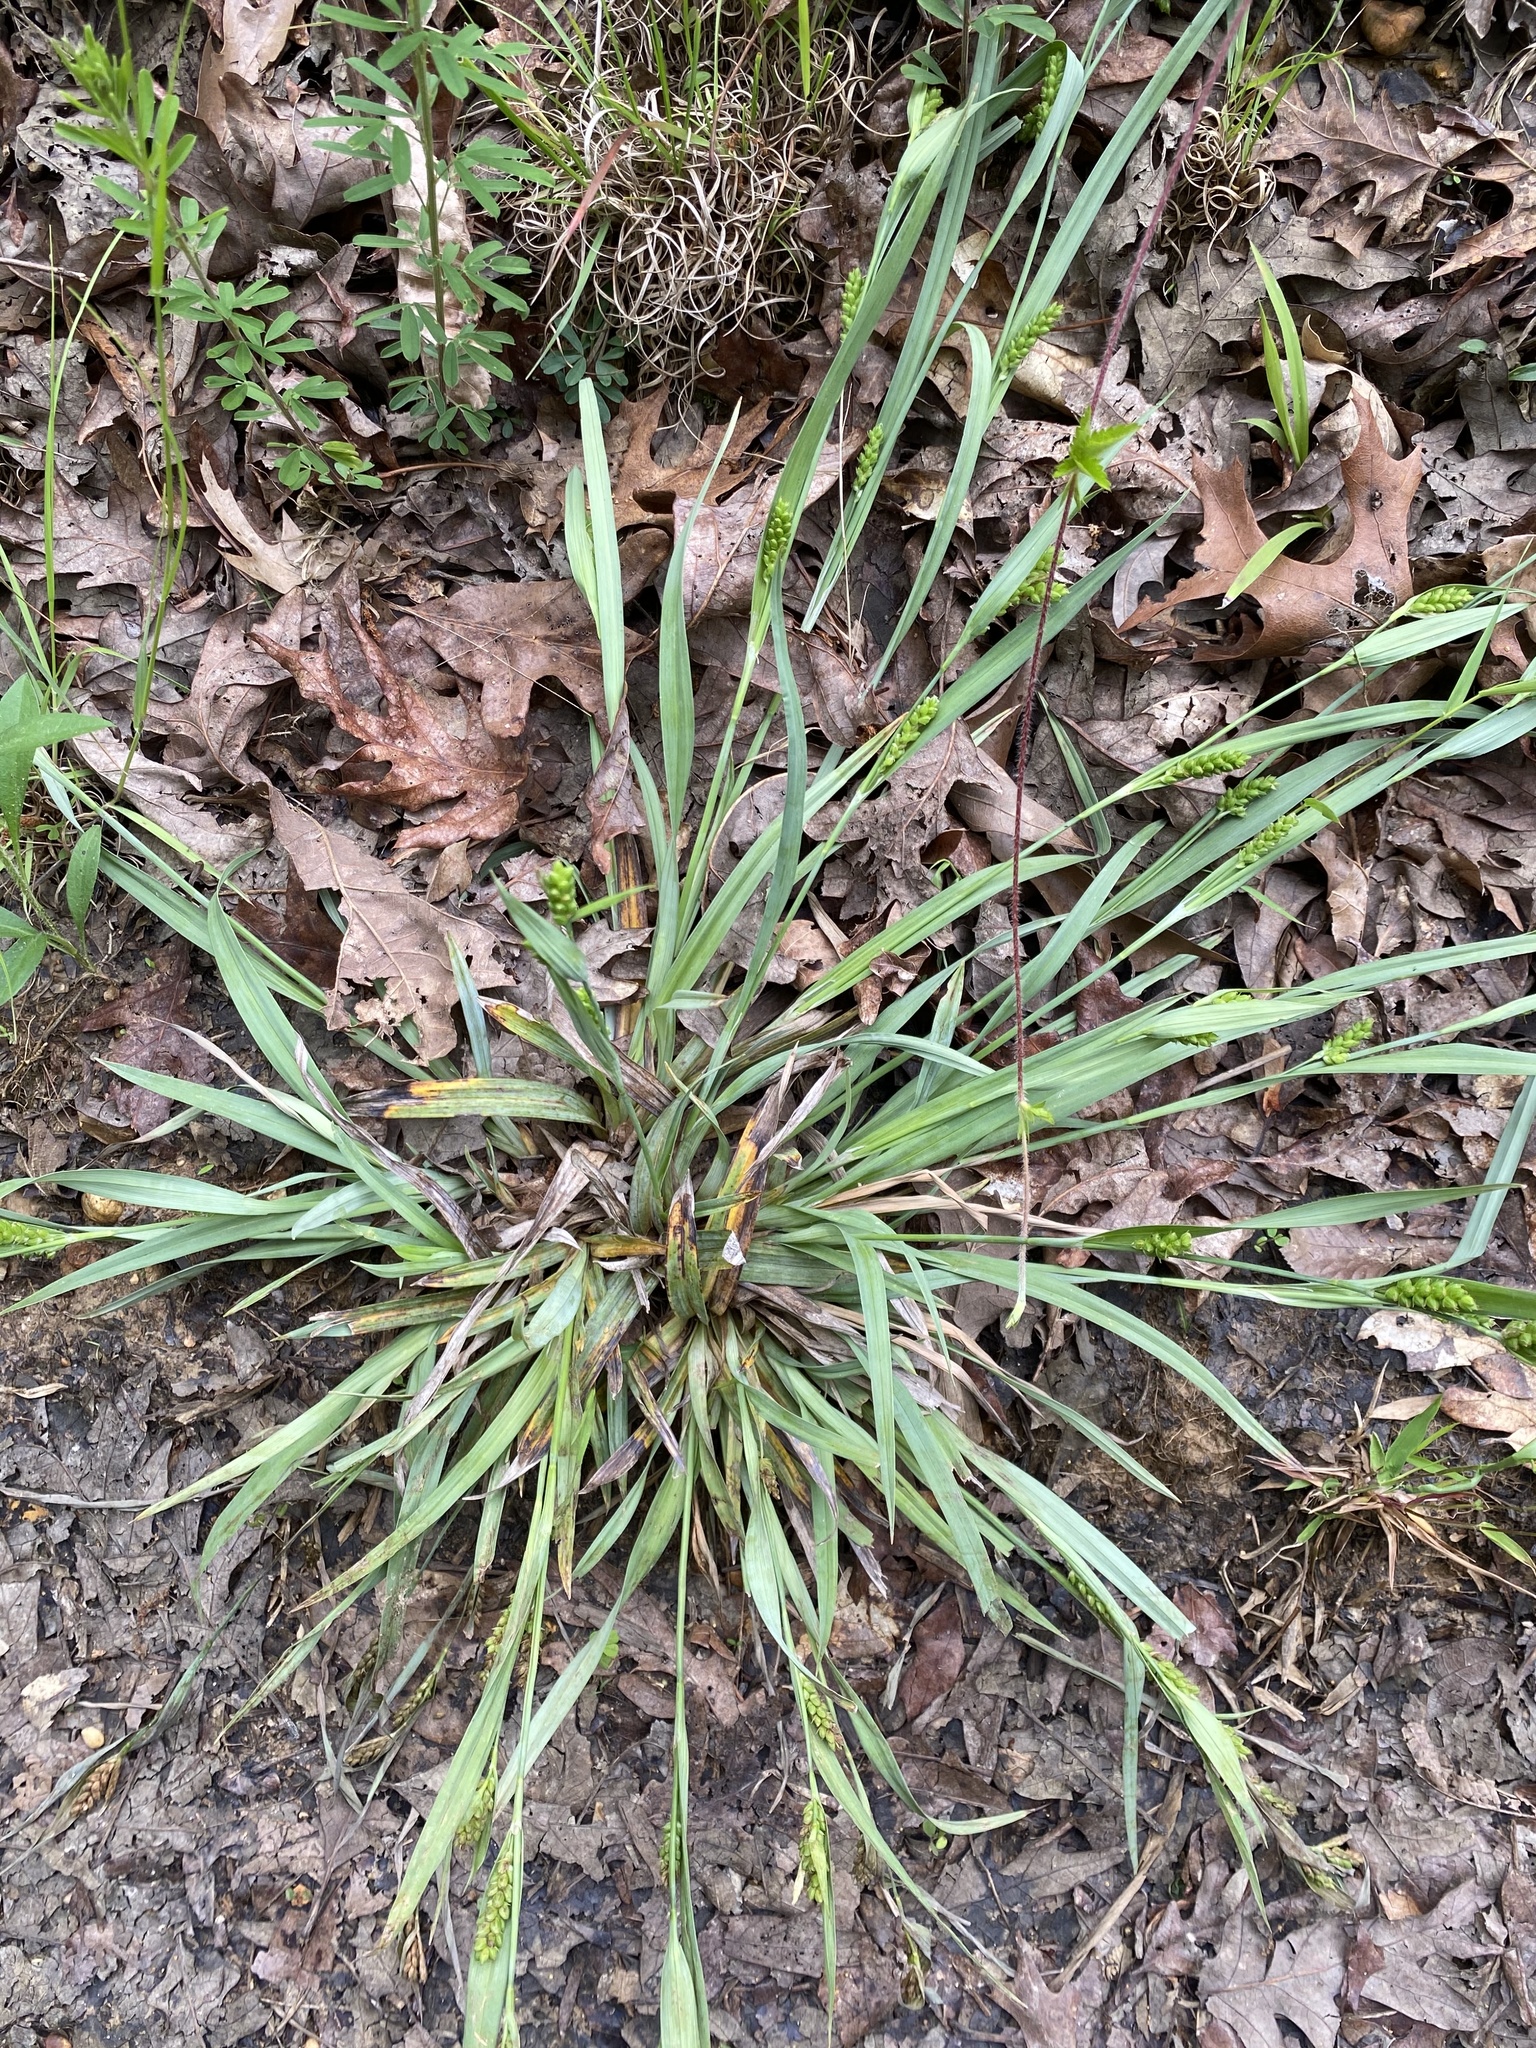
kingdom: Plantae
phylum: Tracheophyta
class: Liliopsida
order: Poales
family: Cyperaceae
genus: Carex
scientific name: Carex glaucodea
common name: Blue sedge
